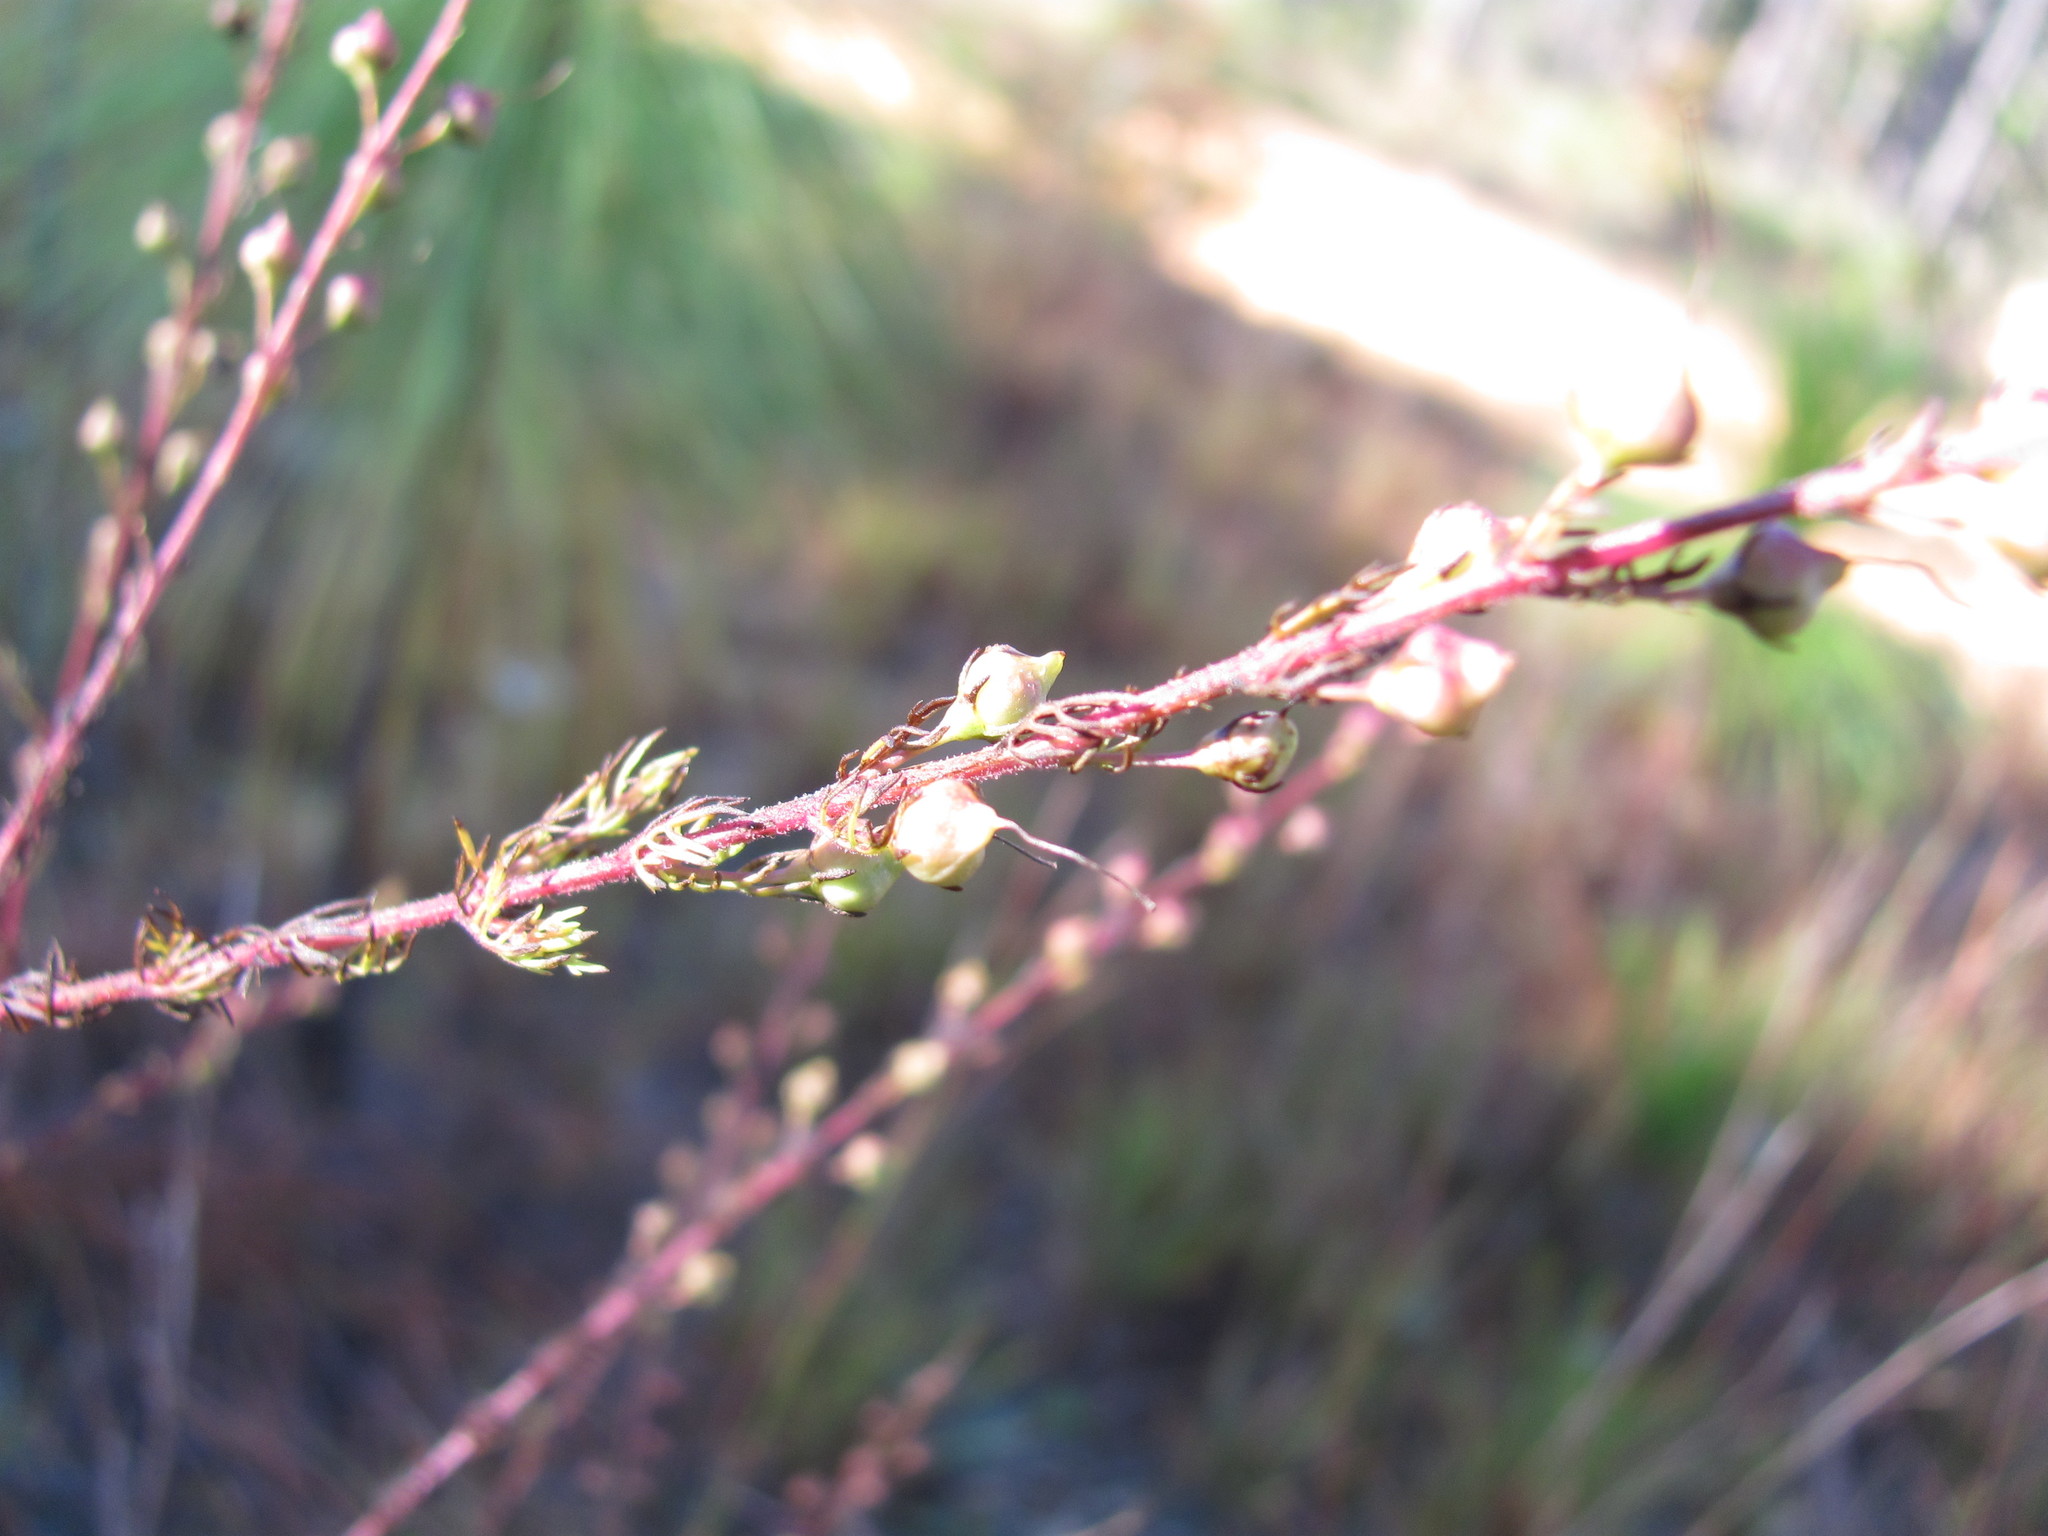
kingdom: Plantae
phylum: Tracheophyta
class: Magnoliopsida
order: Lamiales
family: Orobanchaceae
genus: Seymeria
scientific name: Seymeria pectinata
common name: Piedmont black-senna
